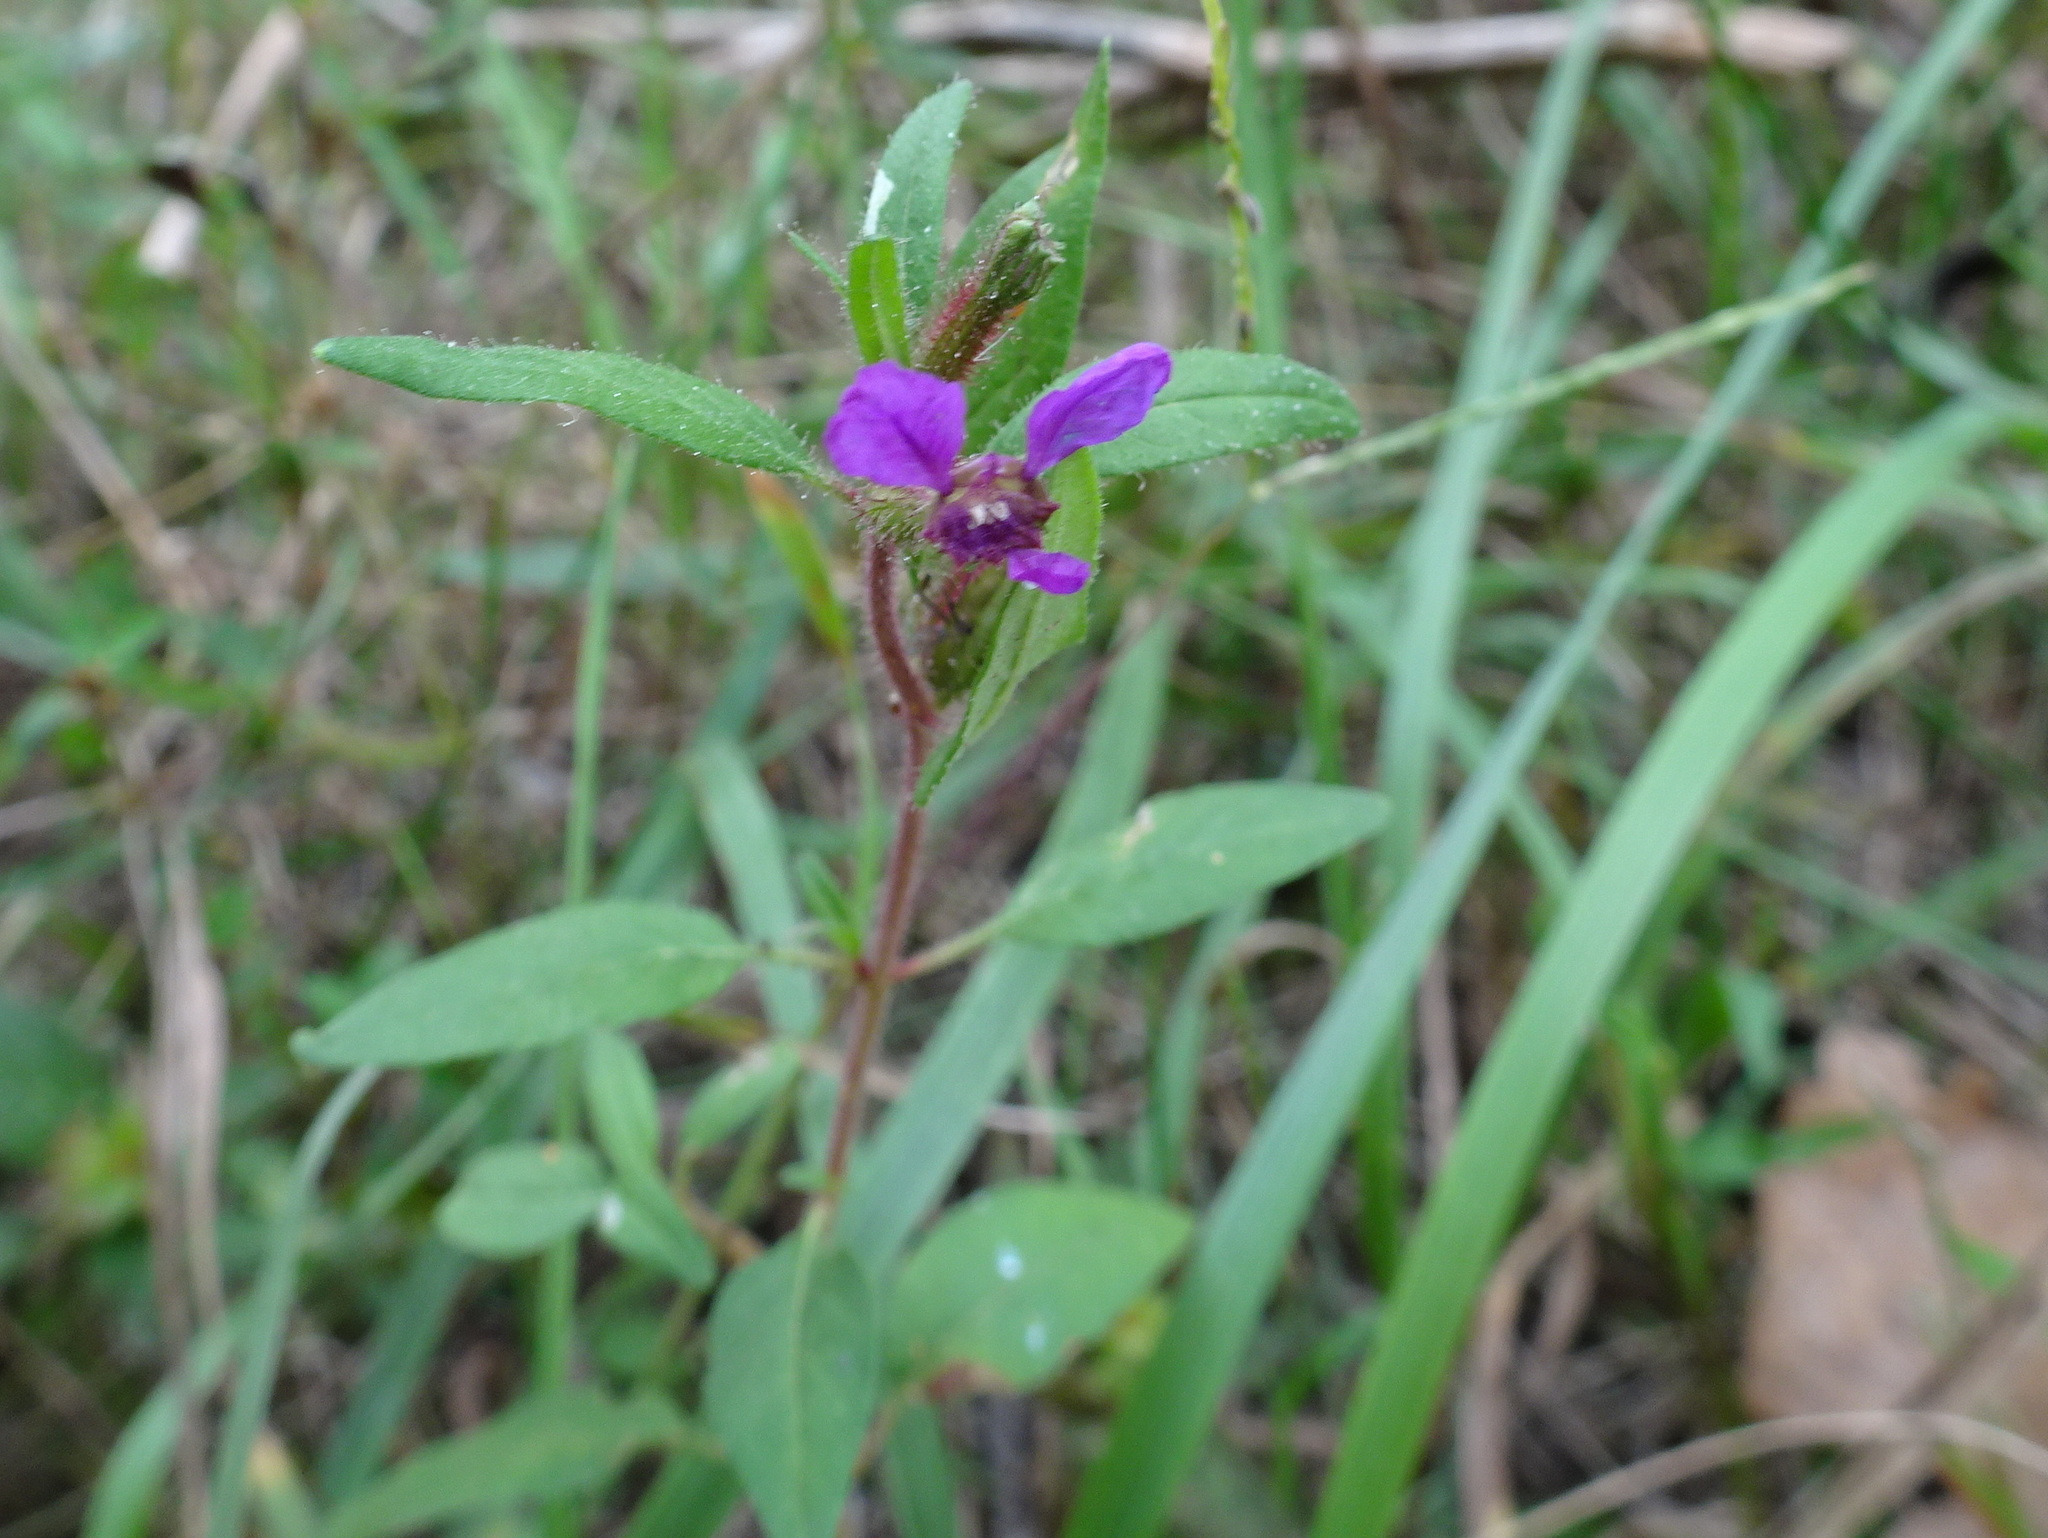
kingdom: Plantae
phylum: Tracheophyta
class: Magnoliopsida
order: Myrtales
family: Lythraceae
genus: Cuphea
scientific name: Cuphea viscosissima
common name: Clammy cuphea
